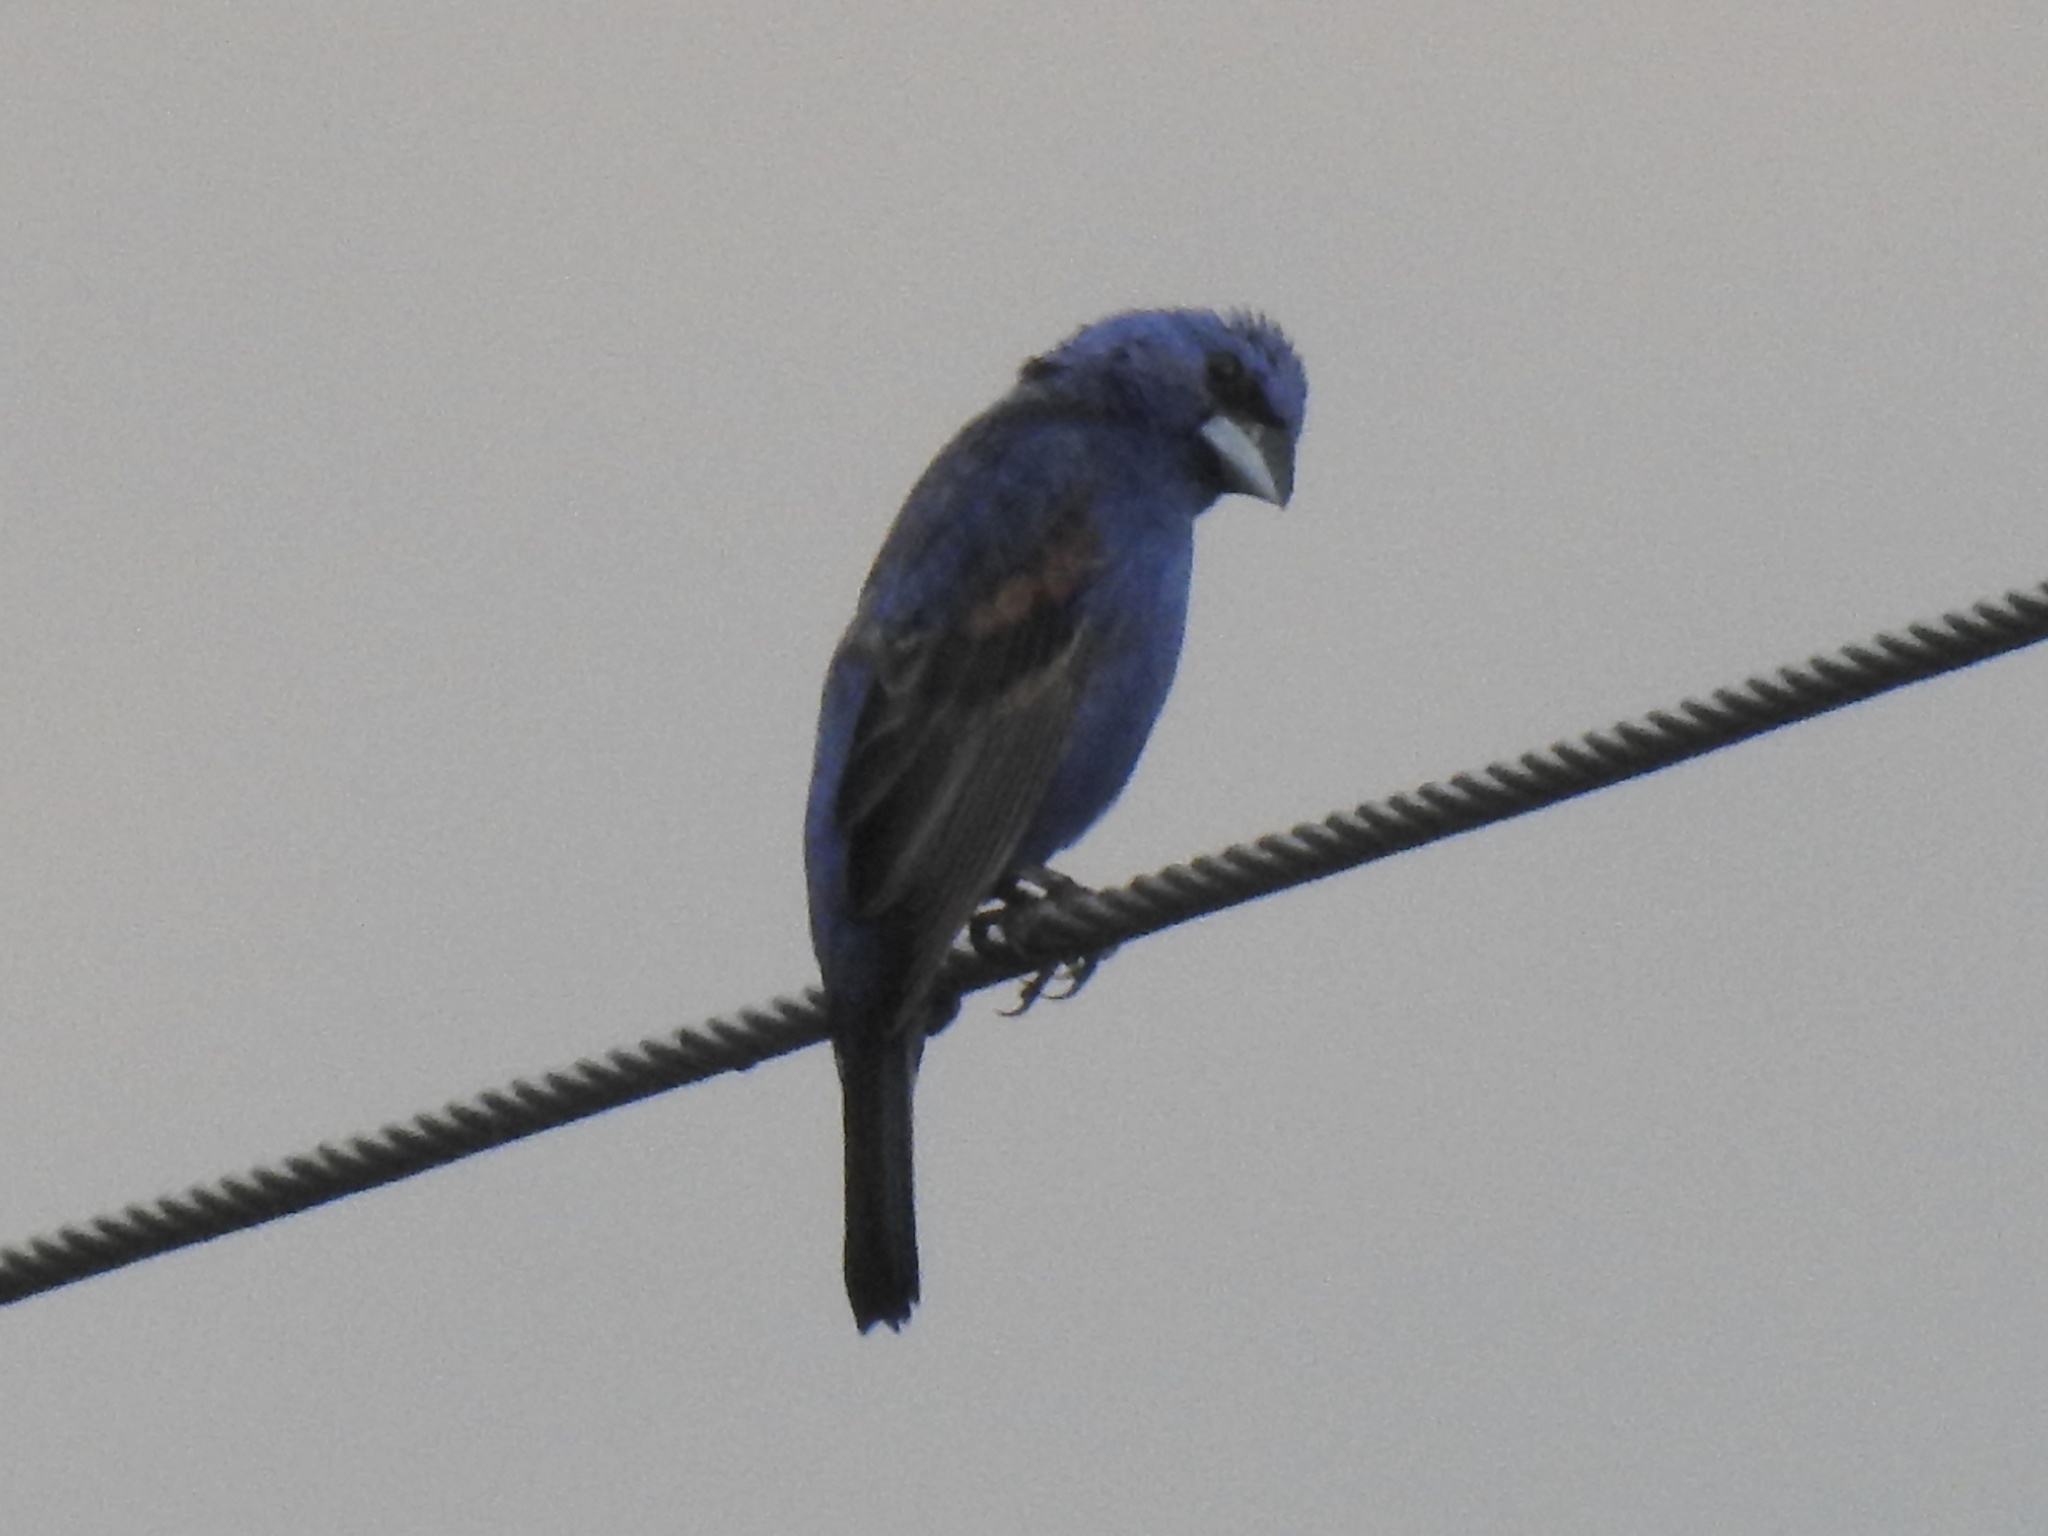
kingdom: Animalia
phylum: Chordata
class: Aves
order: Passeriformes
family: Cardinalidae
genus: Passerina
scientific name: Passerina caerulea
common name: Blue grosbeak
